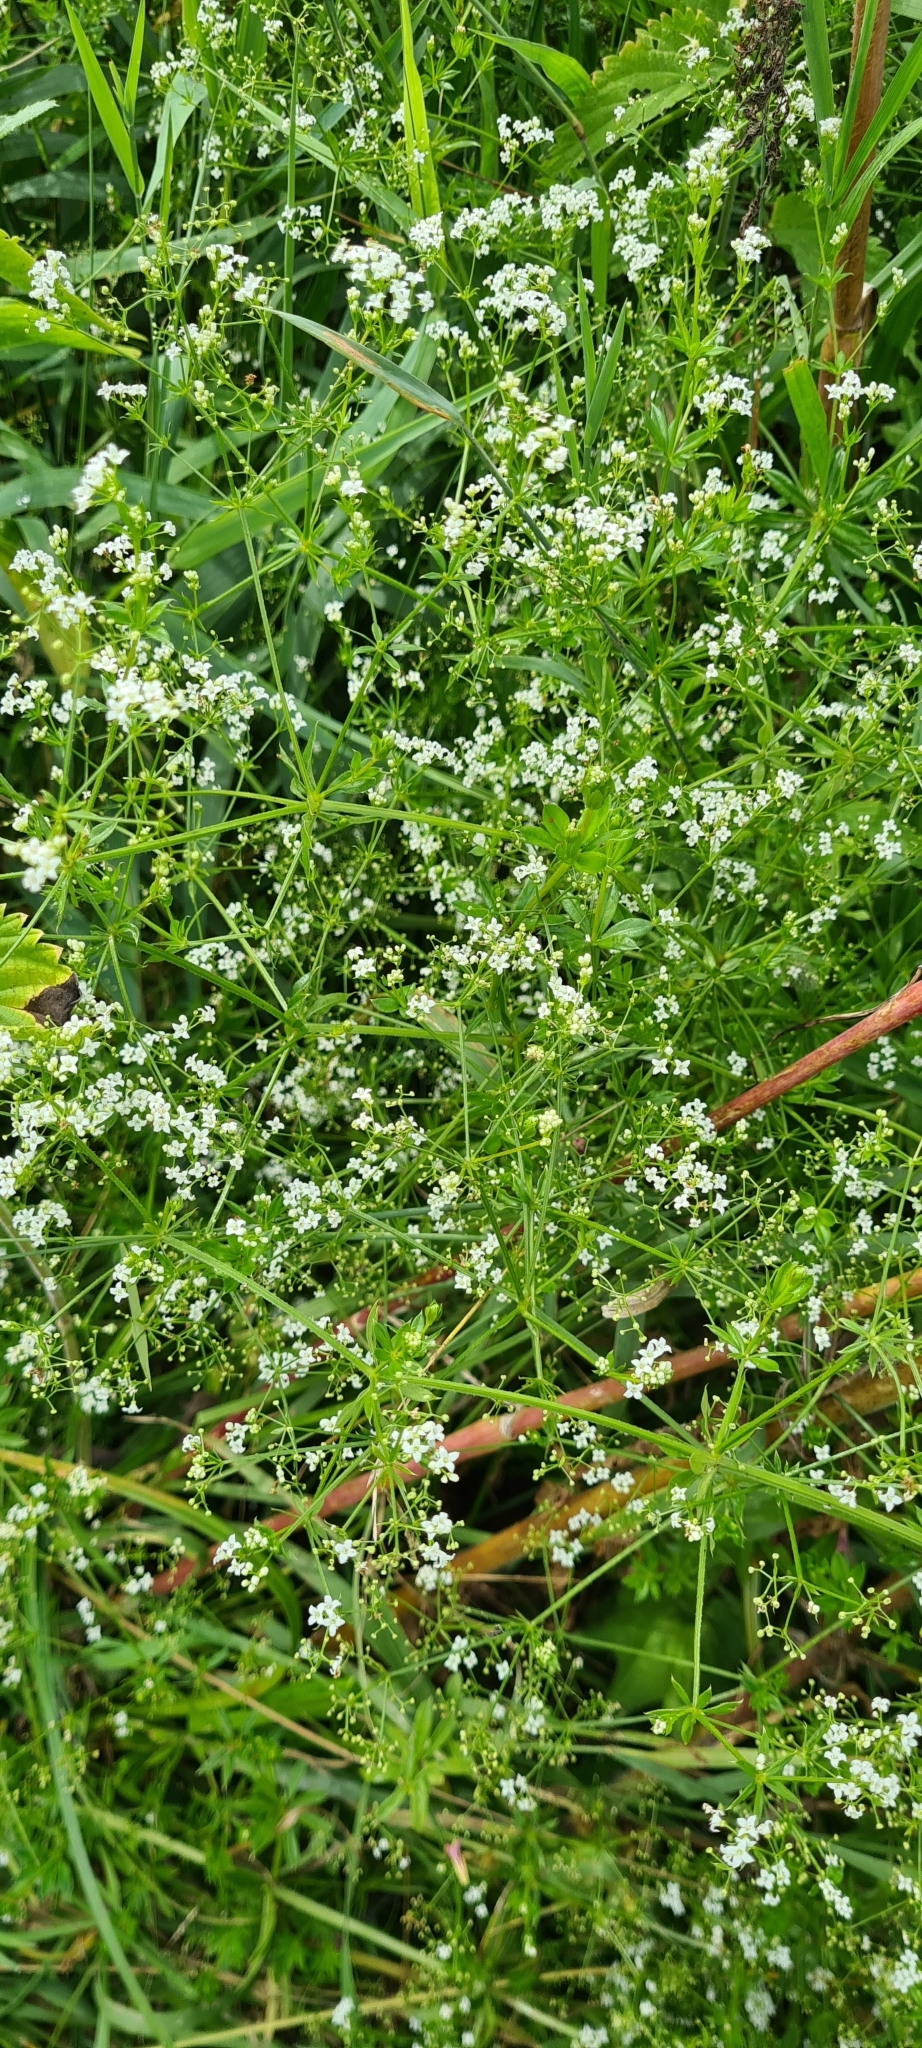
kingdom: Plantae
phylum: Tracheophyta
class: Magnoliopsida
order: Gentianales
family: Rubiaceae
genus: Galium
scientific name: Galium rivale
